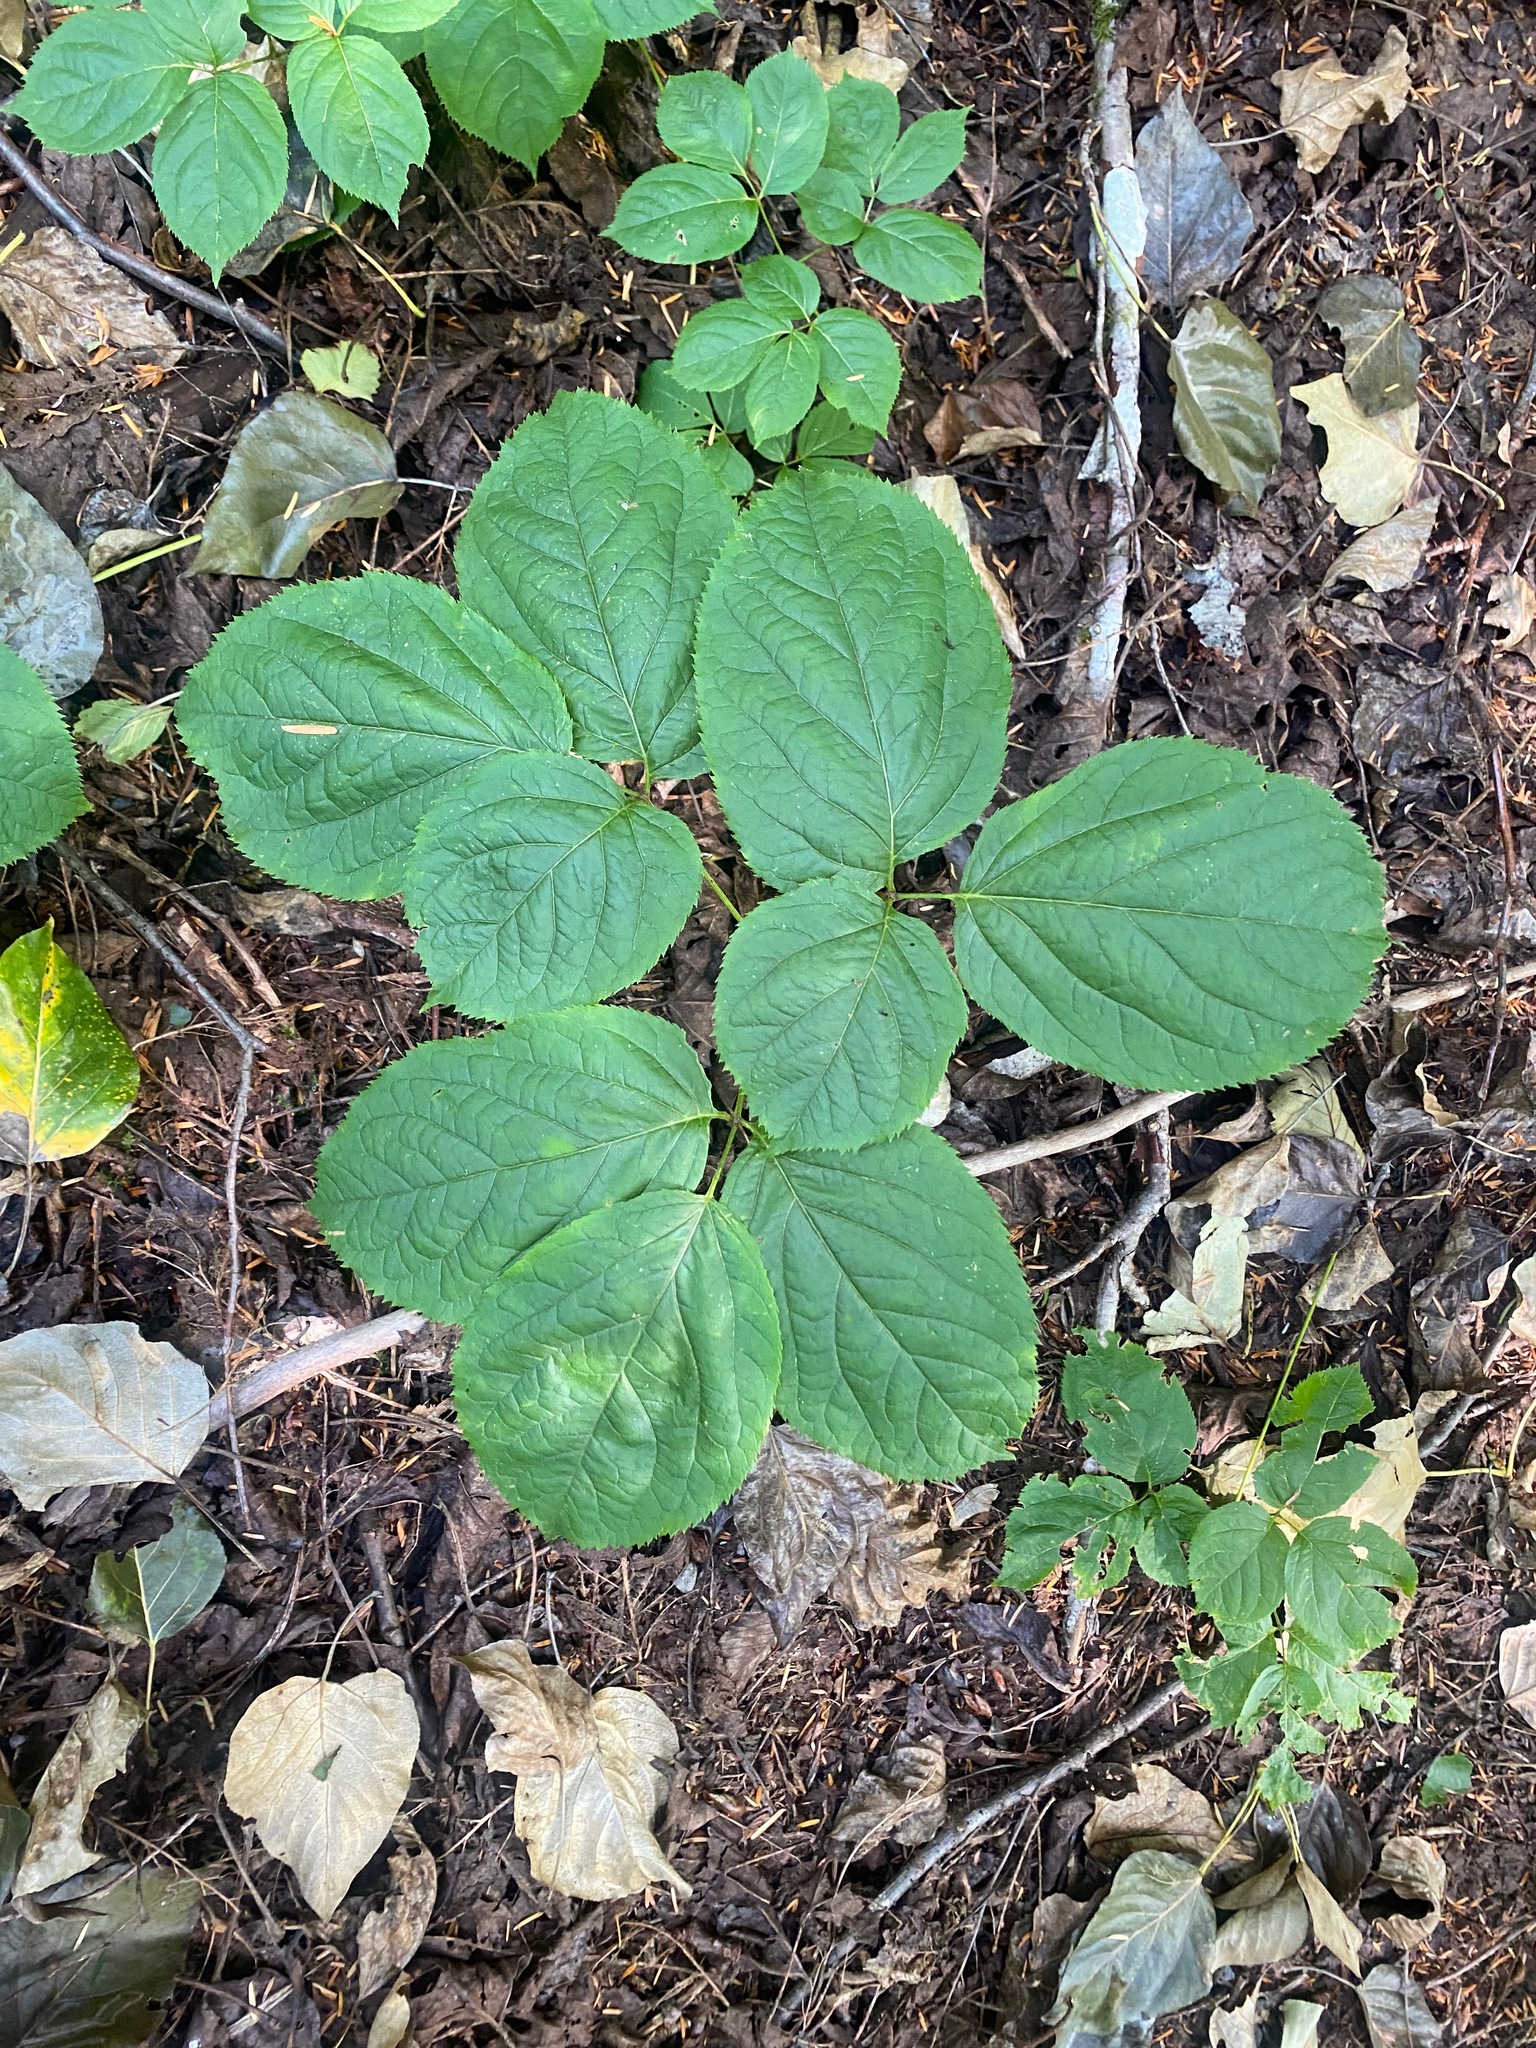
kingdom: Plantae
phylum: Tracheophyta
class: Magnoliopsida
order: Apiales
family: Araliaceae
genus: Aralia
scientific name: Aralia nudicaulis
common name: Wild sarsaparilla
